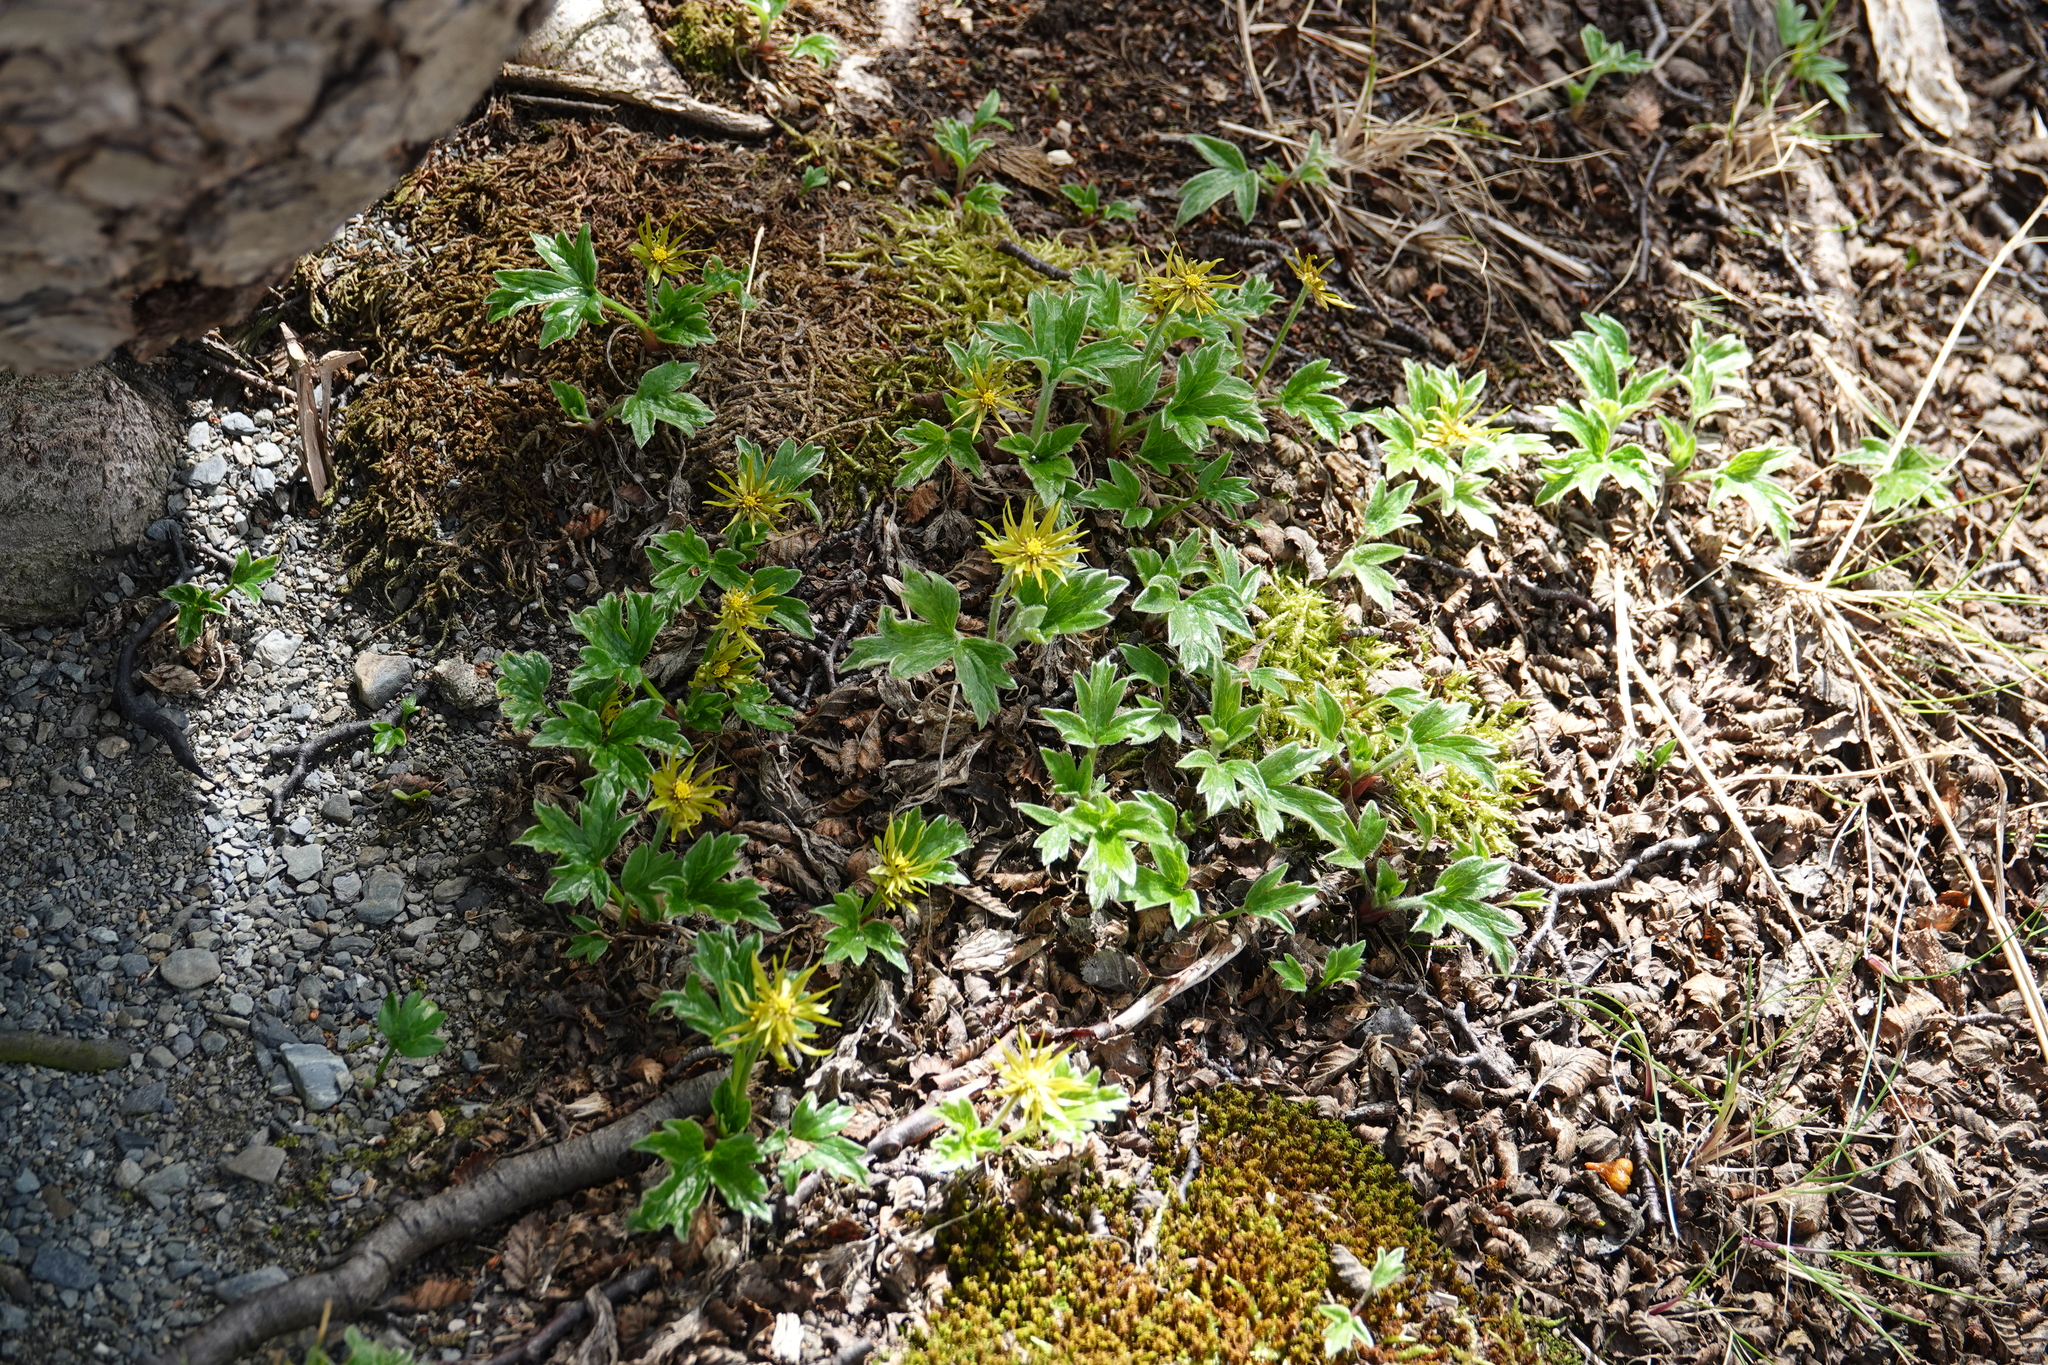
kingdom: Plantae
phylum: Tracheophyta
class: Magnoliopsida
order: Ranunculales
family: Ranunculaceae
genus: Hamadryas
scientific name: Hamadryas magellanica
